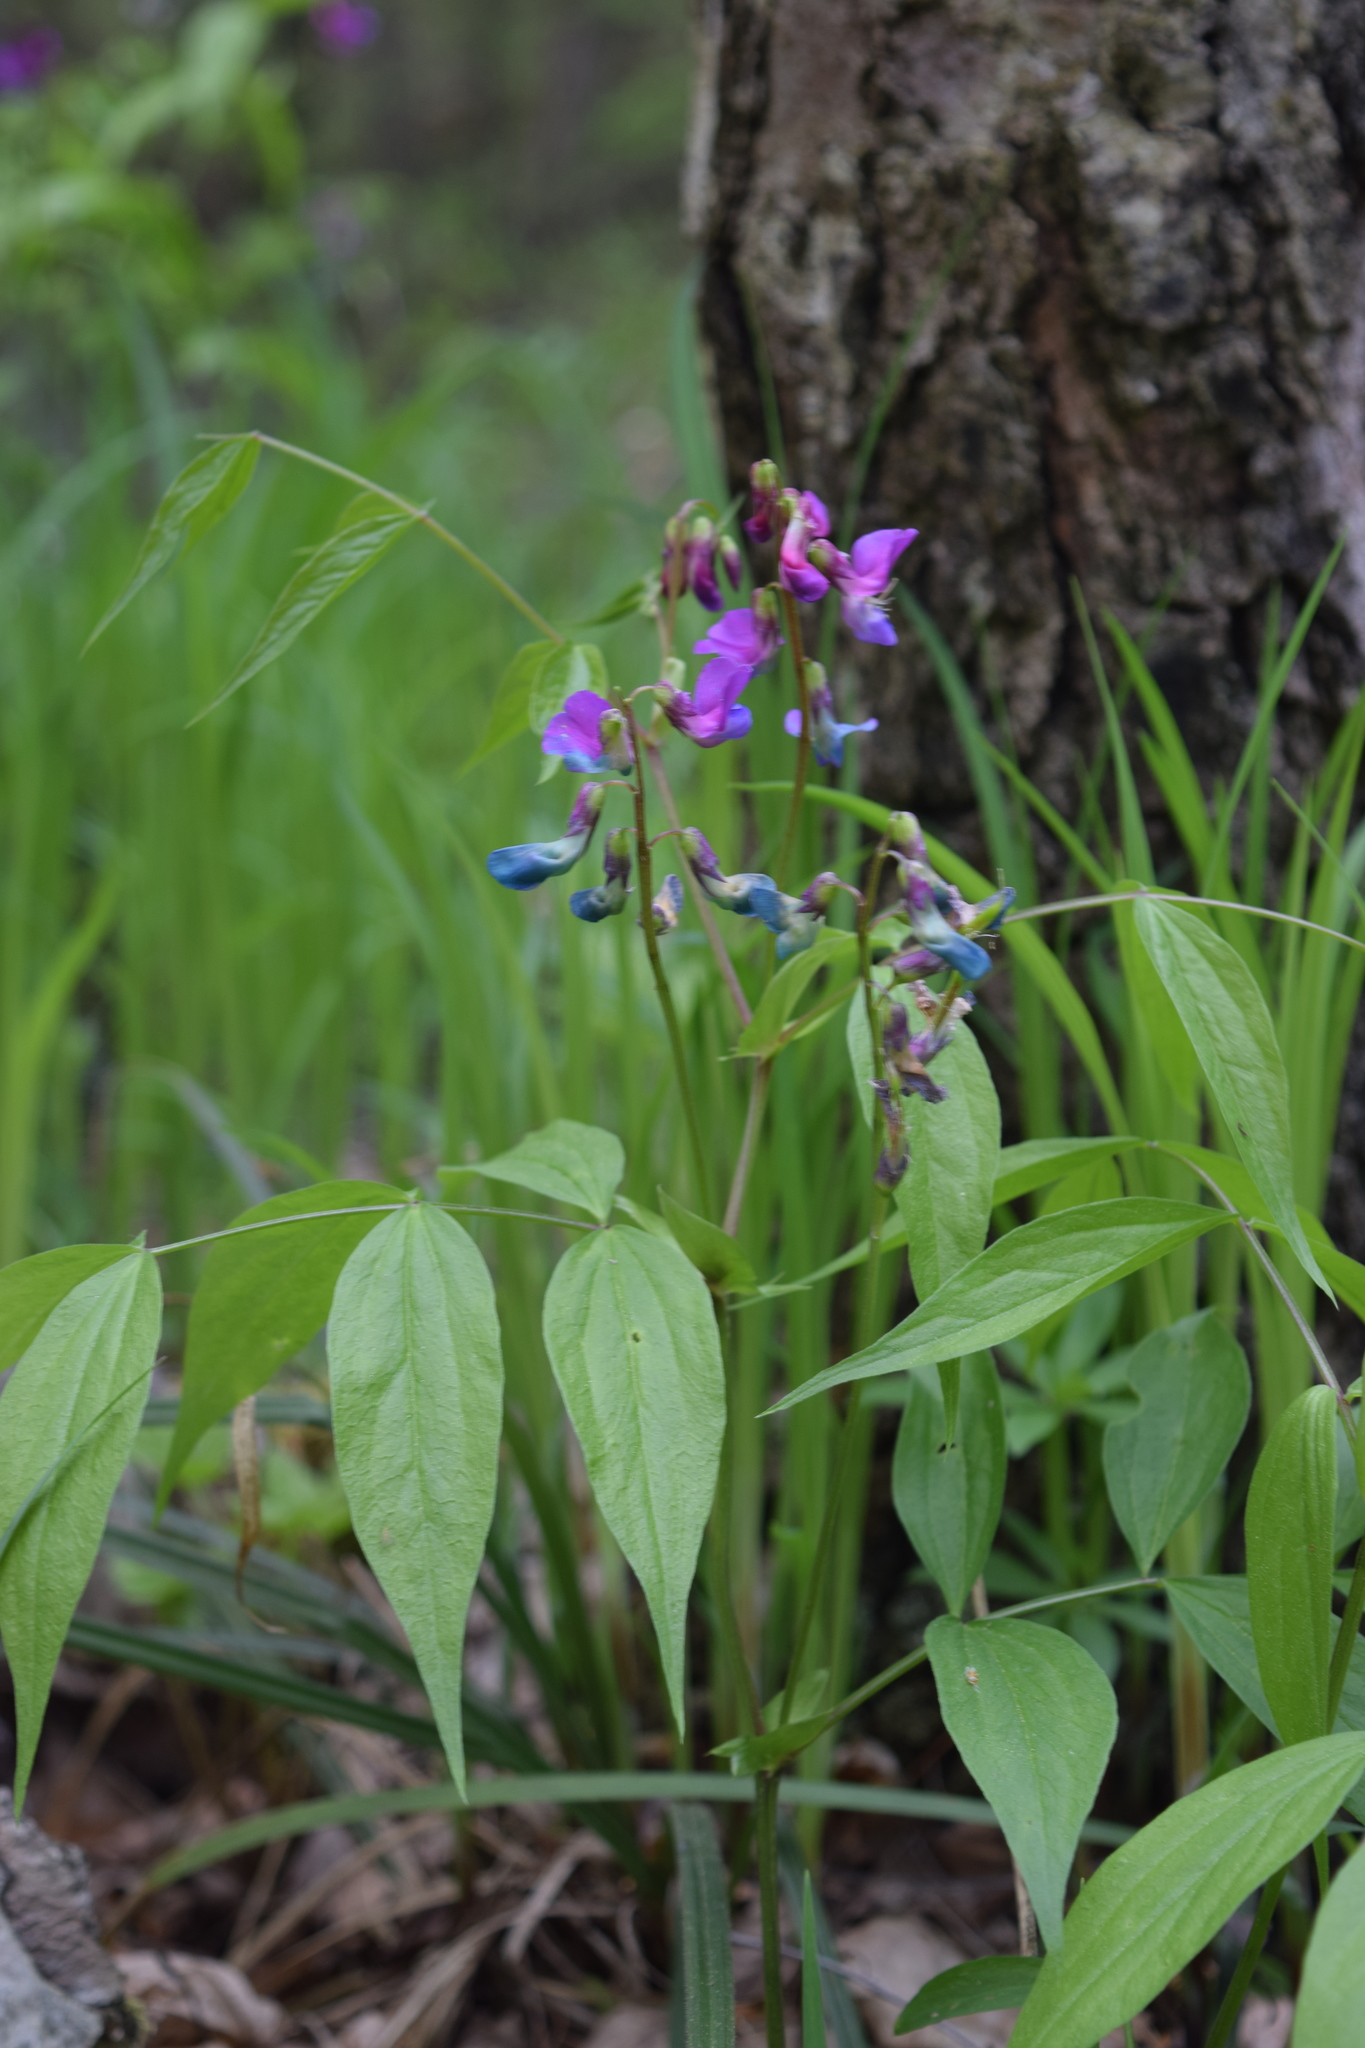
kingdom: Plantae
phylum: Tracheophyta
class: Magnoliopsida
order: Fabales
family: Fabaceae
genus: Lathyrus
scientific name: Lathyrus vernus
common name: Spring pea
